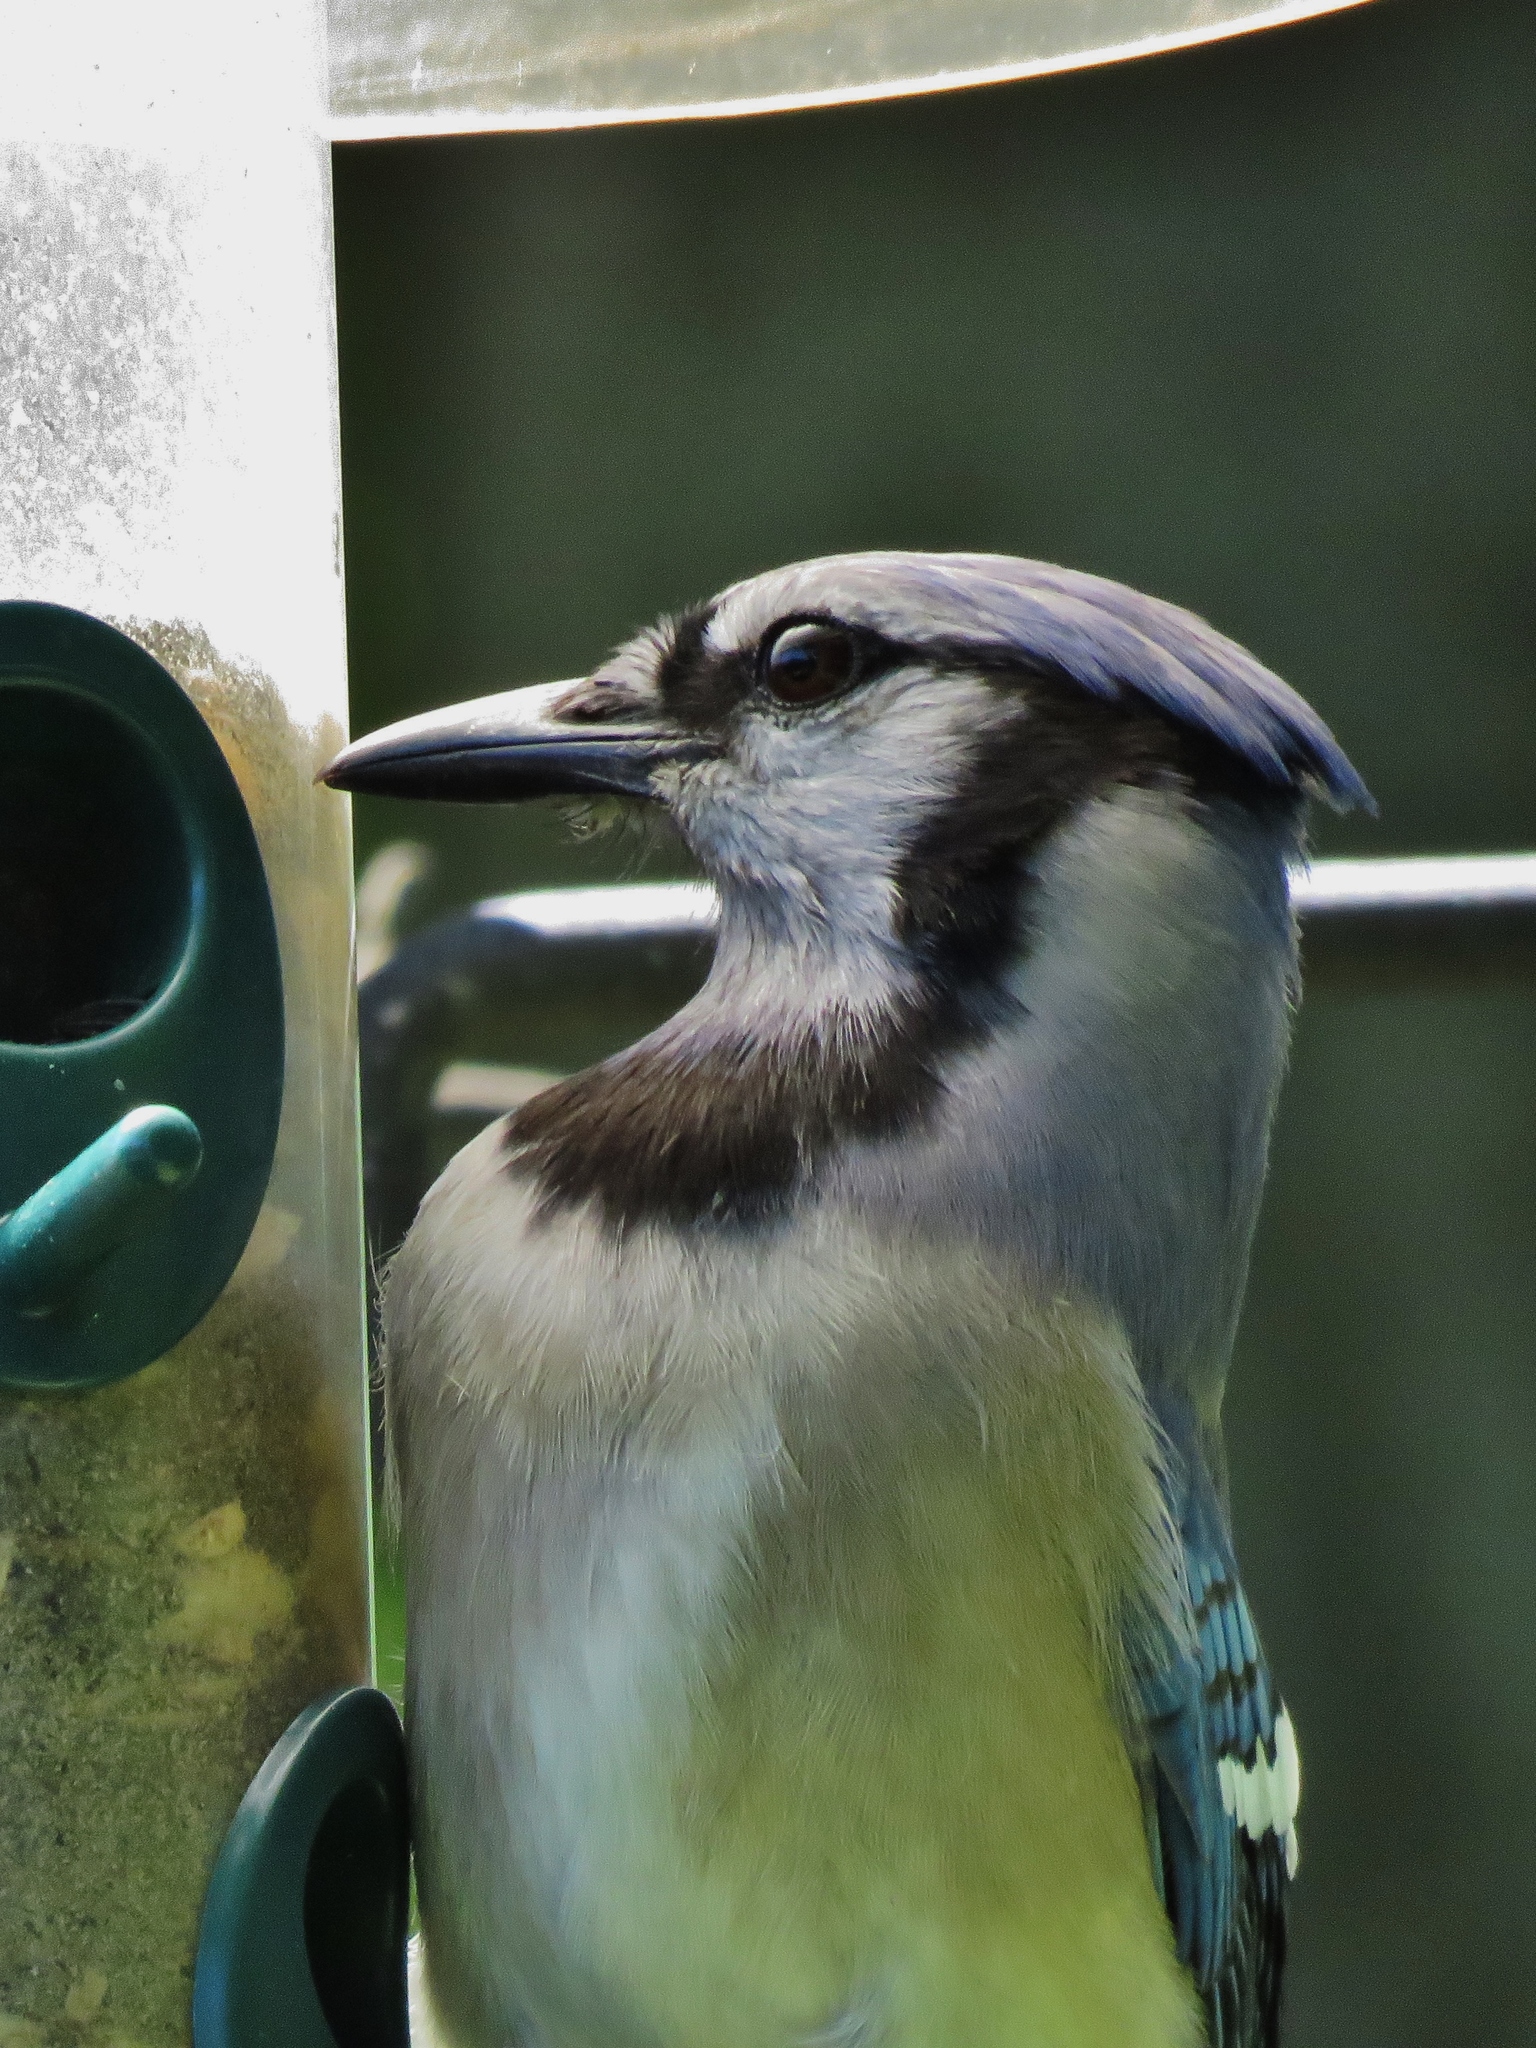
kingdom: Animalia
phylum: Chordata
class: Aves
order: Passeriformes
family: Corvidae
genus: Cyanocitta
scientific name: Cyanocitta cristata
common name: Blue jay
